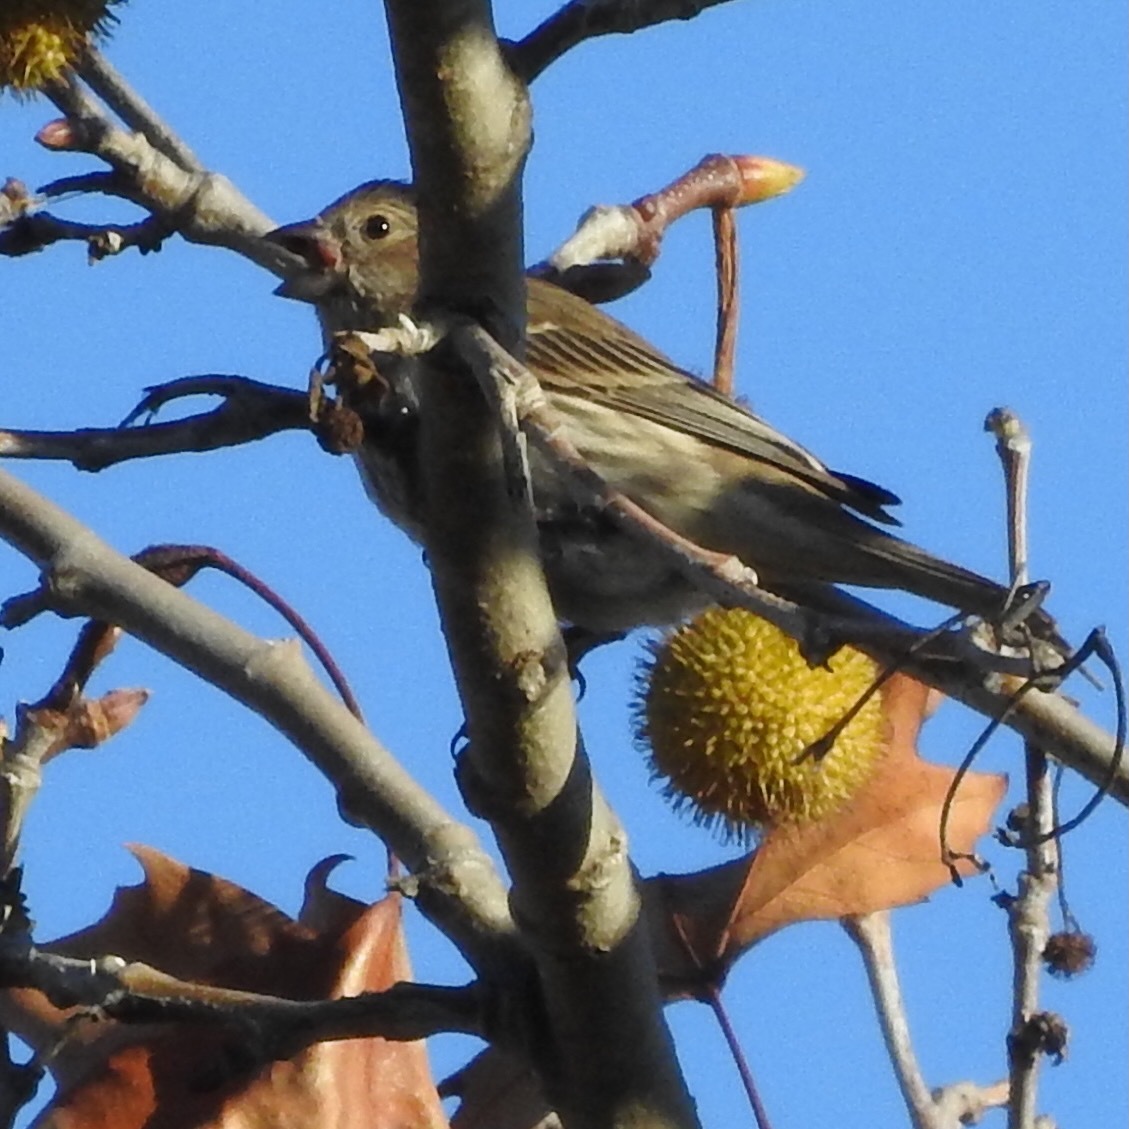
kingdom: Animalia
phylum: Chordata
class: Aves
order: Passeriformes
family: Fringillidae
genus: Haemorhous
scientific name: Haemorhous mexicanus
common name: House finch
